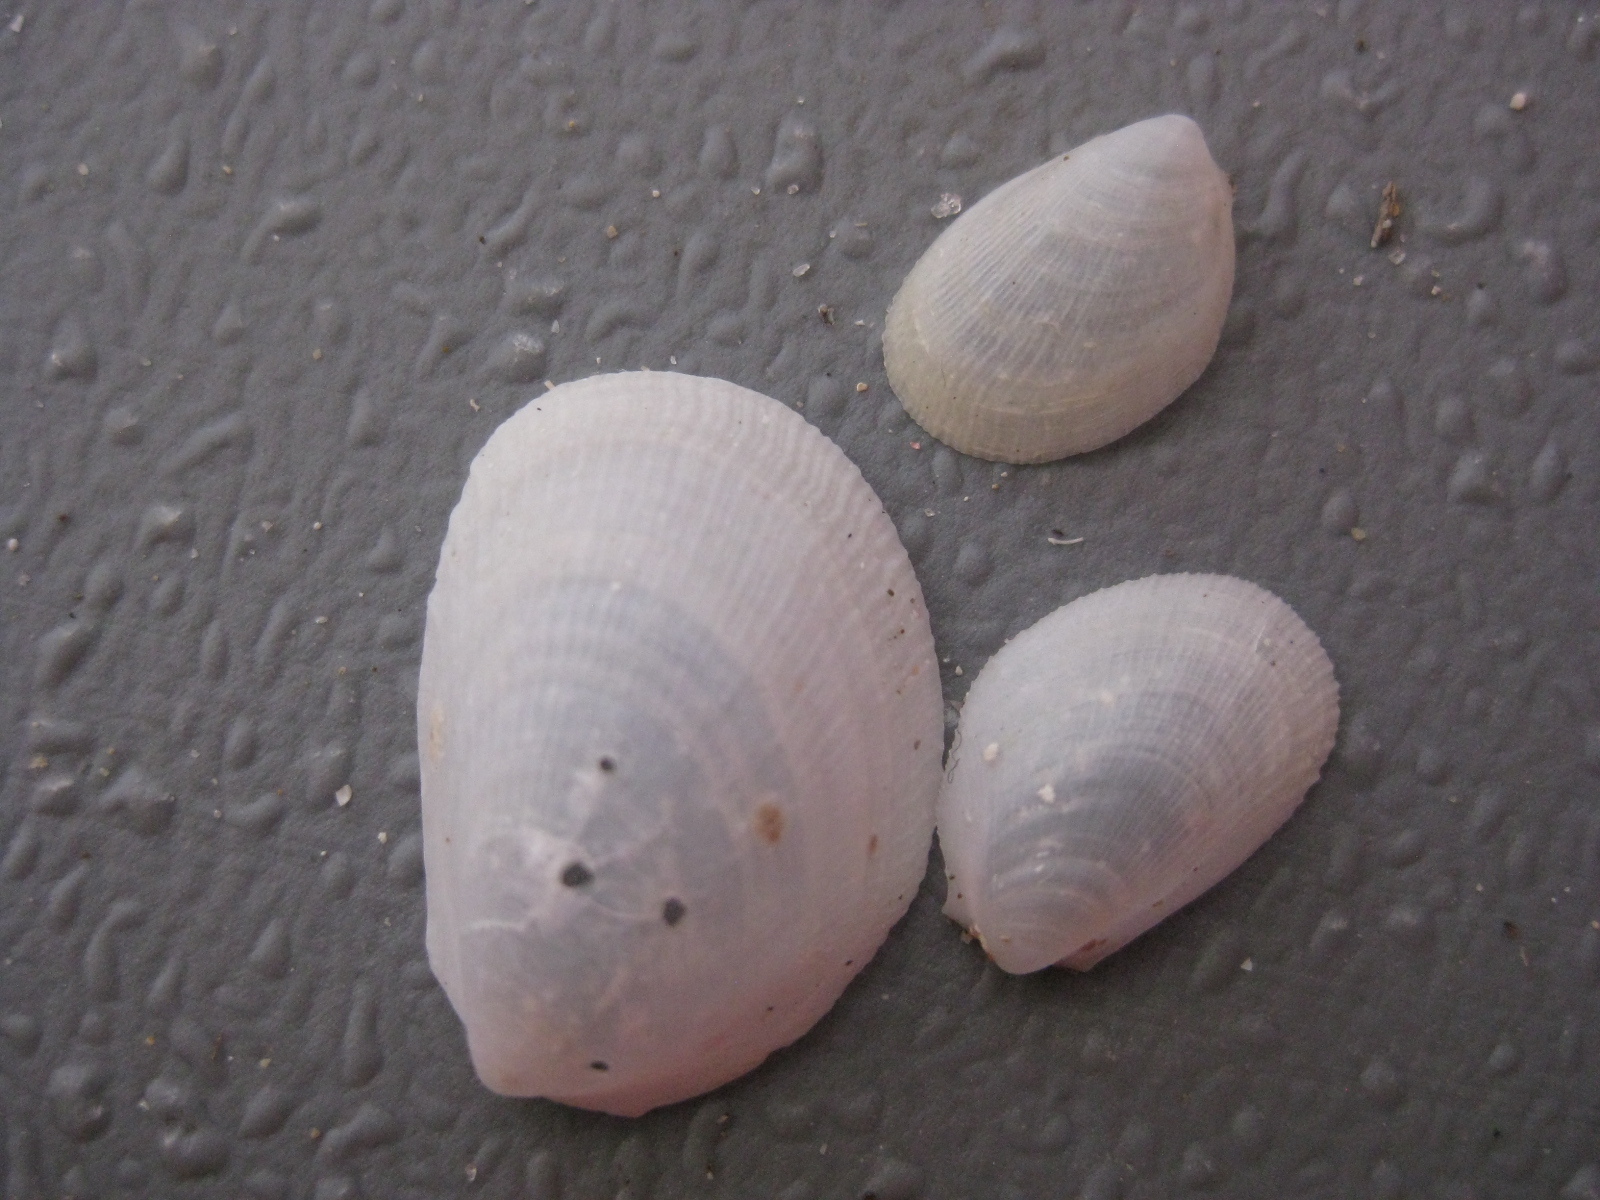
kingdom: Animalia
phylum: Mollusca
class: Bivalvia
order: Limida
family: Limidae
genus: Limaria
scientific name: Limaria orientalis
